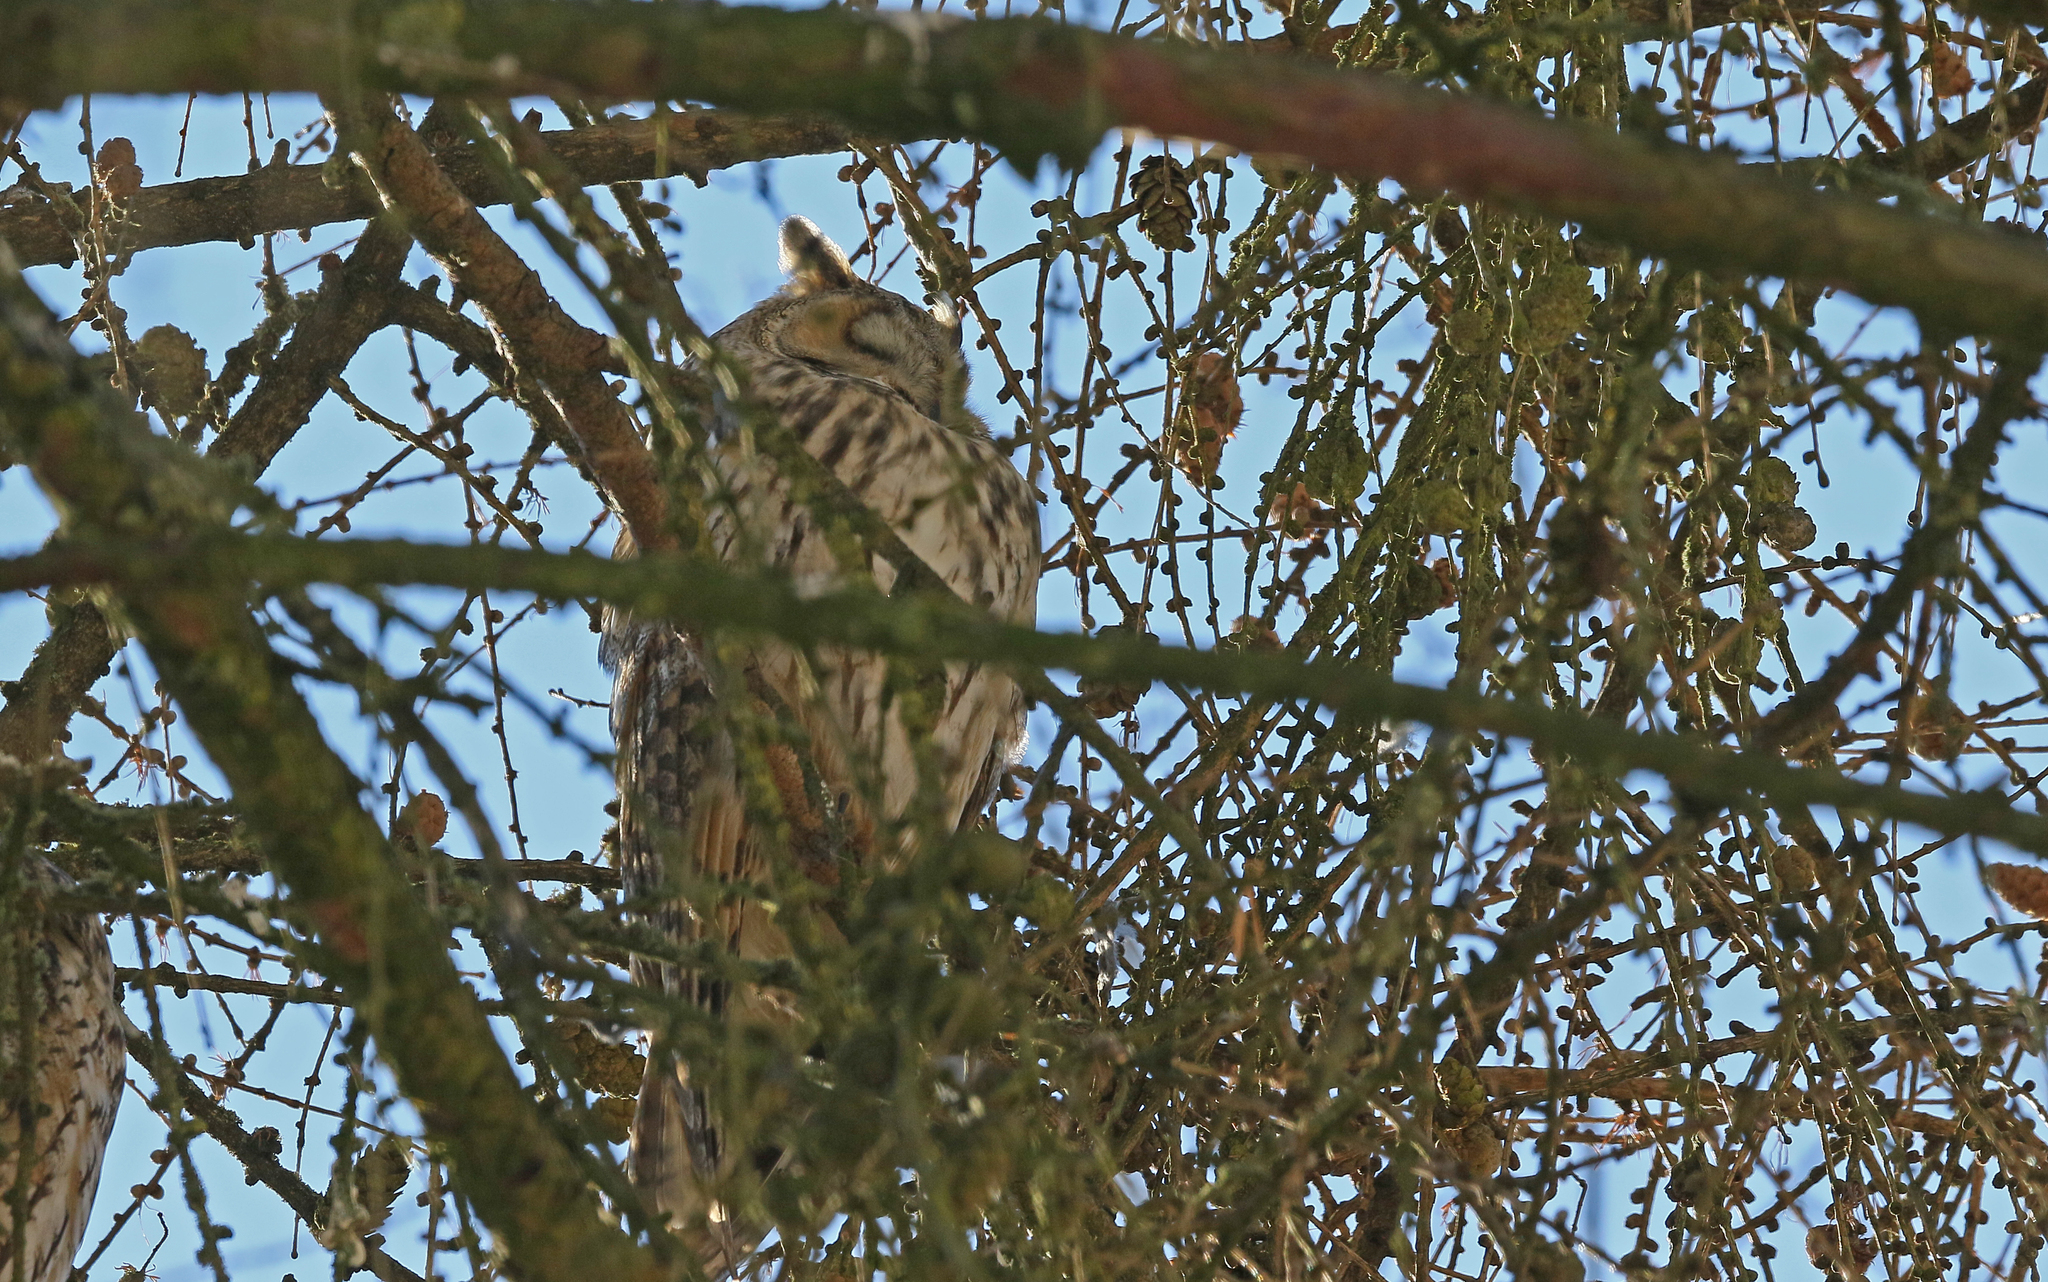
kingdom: Animalia
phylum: Chordata
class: Aves
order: Strigiformes
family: Strigidae
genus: Asio
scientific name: Asio otus
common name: Long-eared owl
